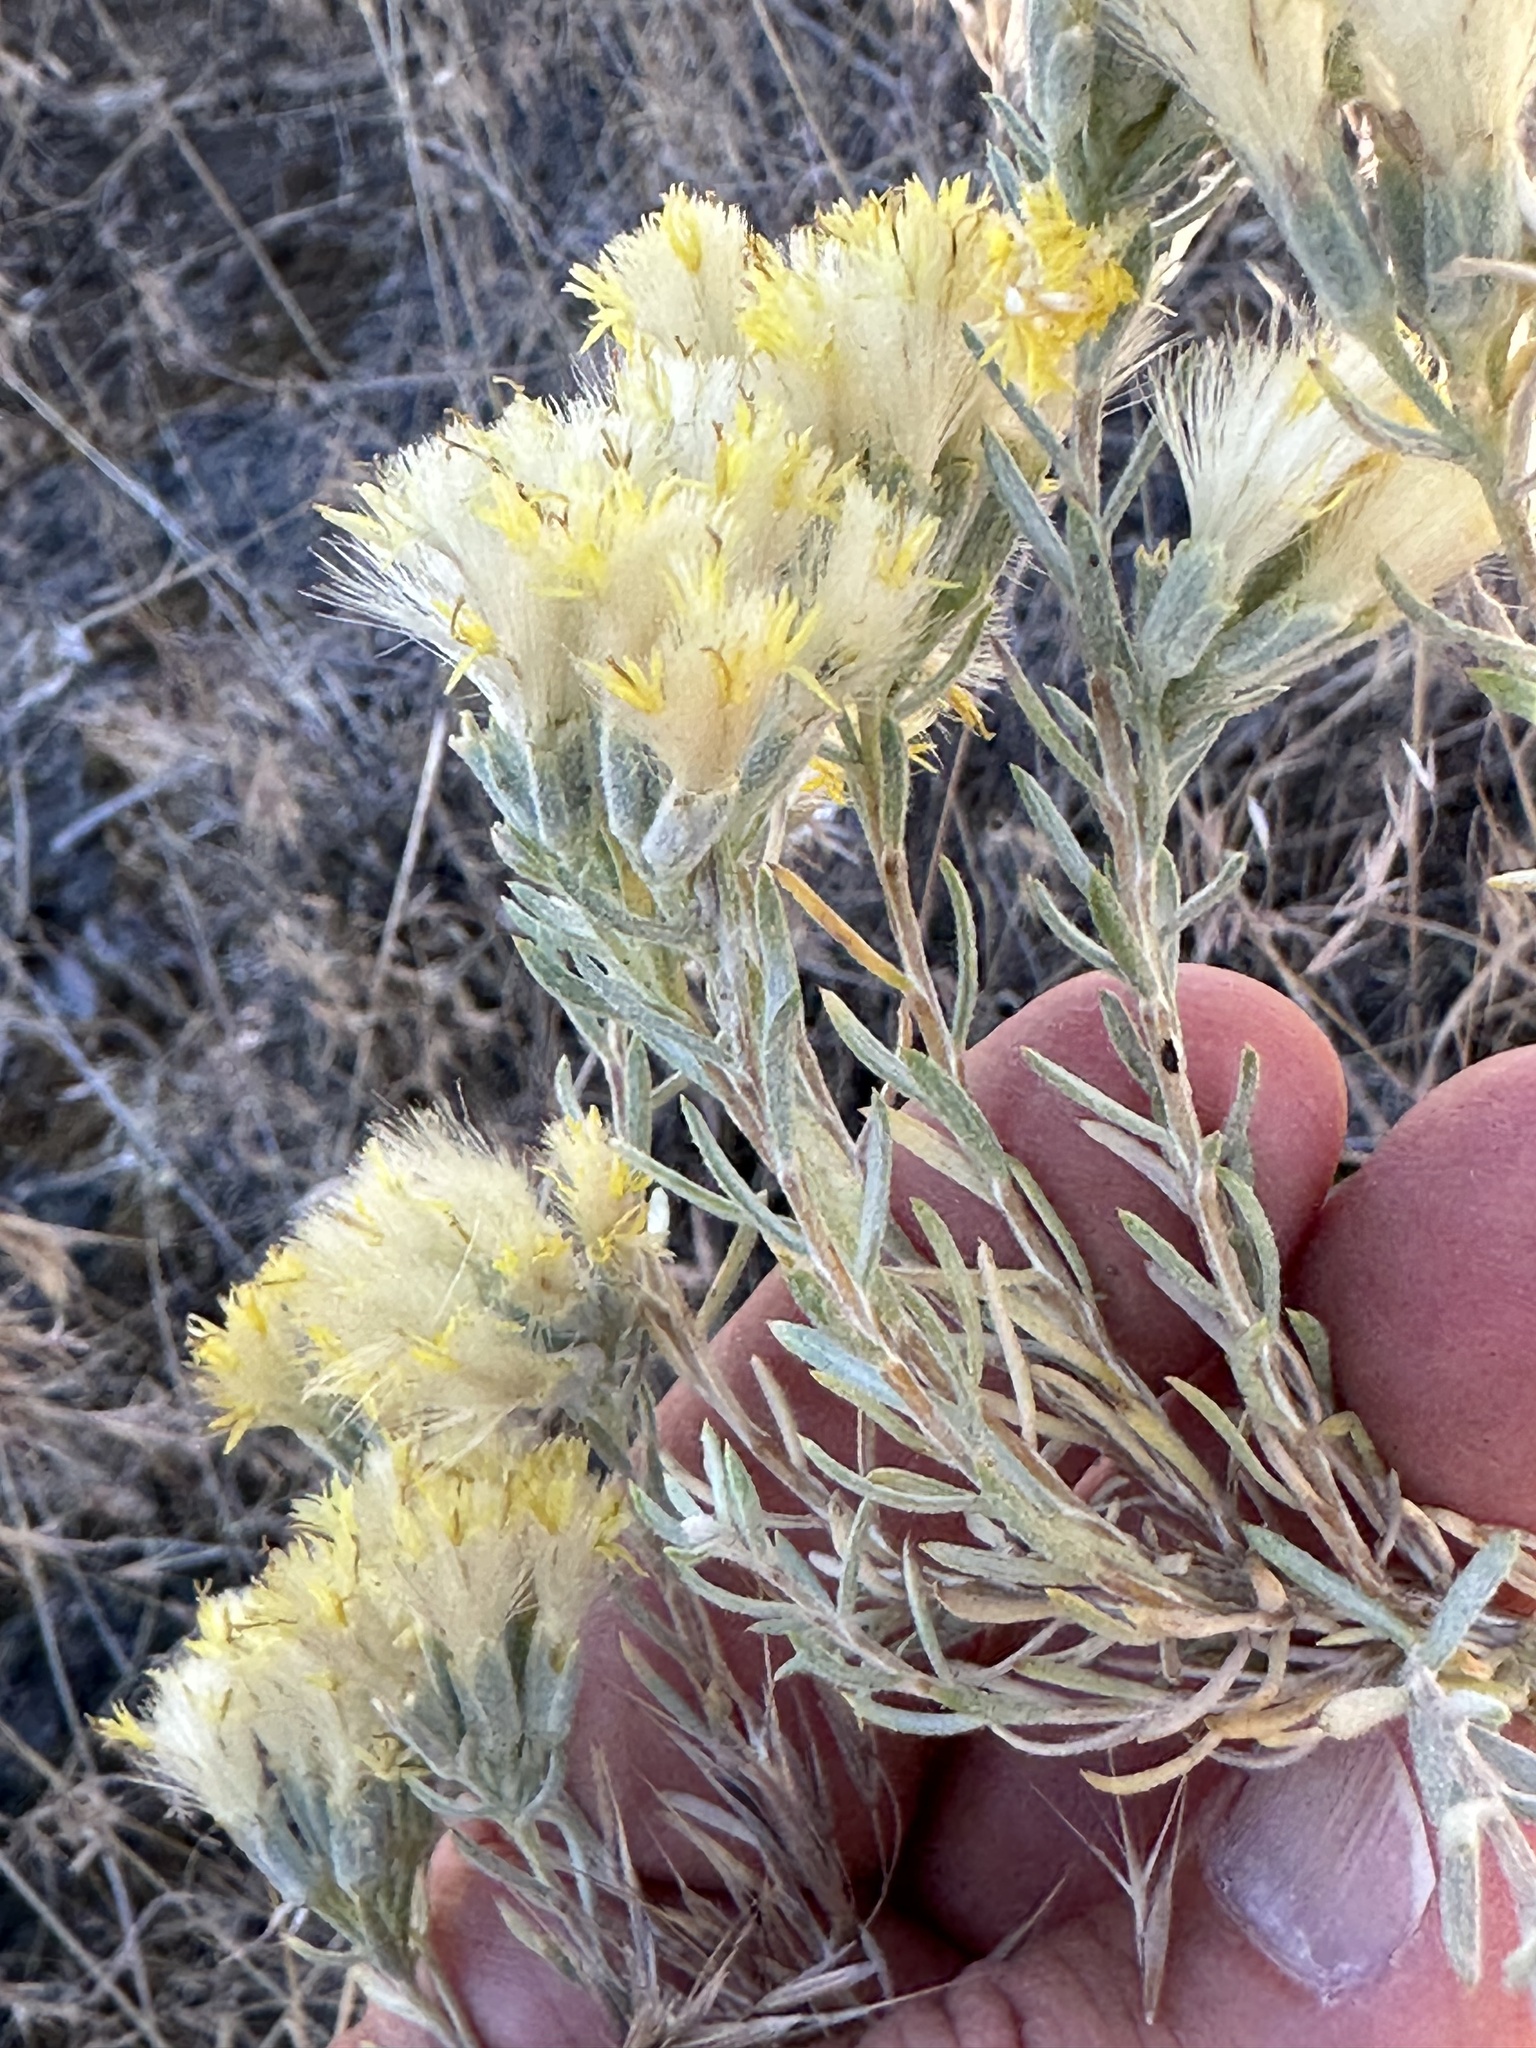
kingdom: Plantae
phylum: Tracheophyta
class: Magnoliopsida
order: Asterales
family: Asteraceae
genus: Tetradymia
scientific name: Tetradymia canescens
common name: Spineless horsebrush
